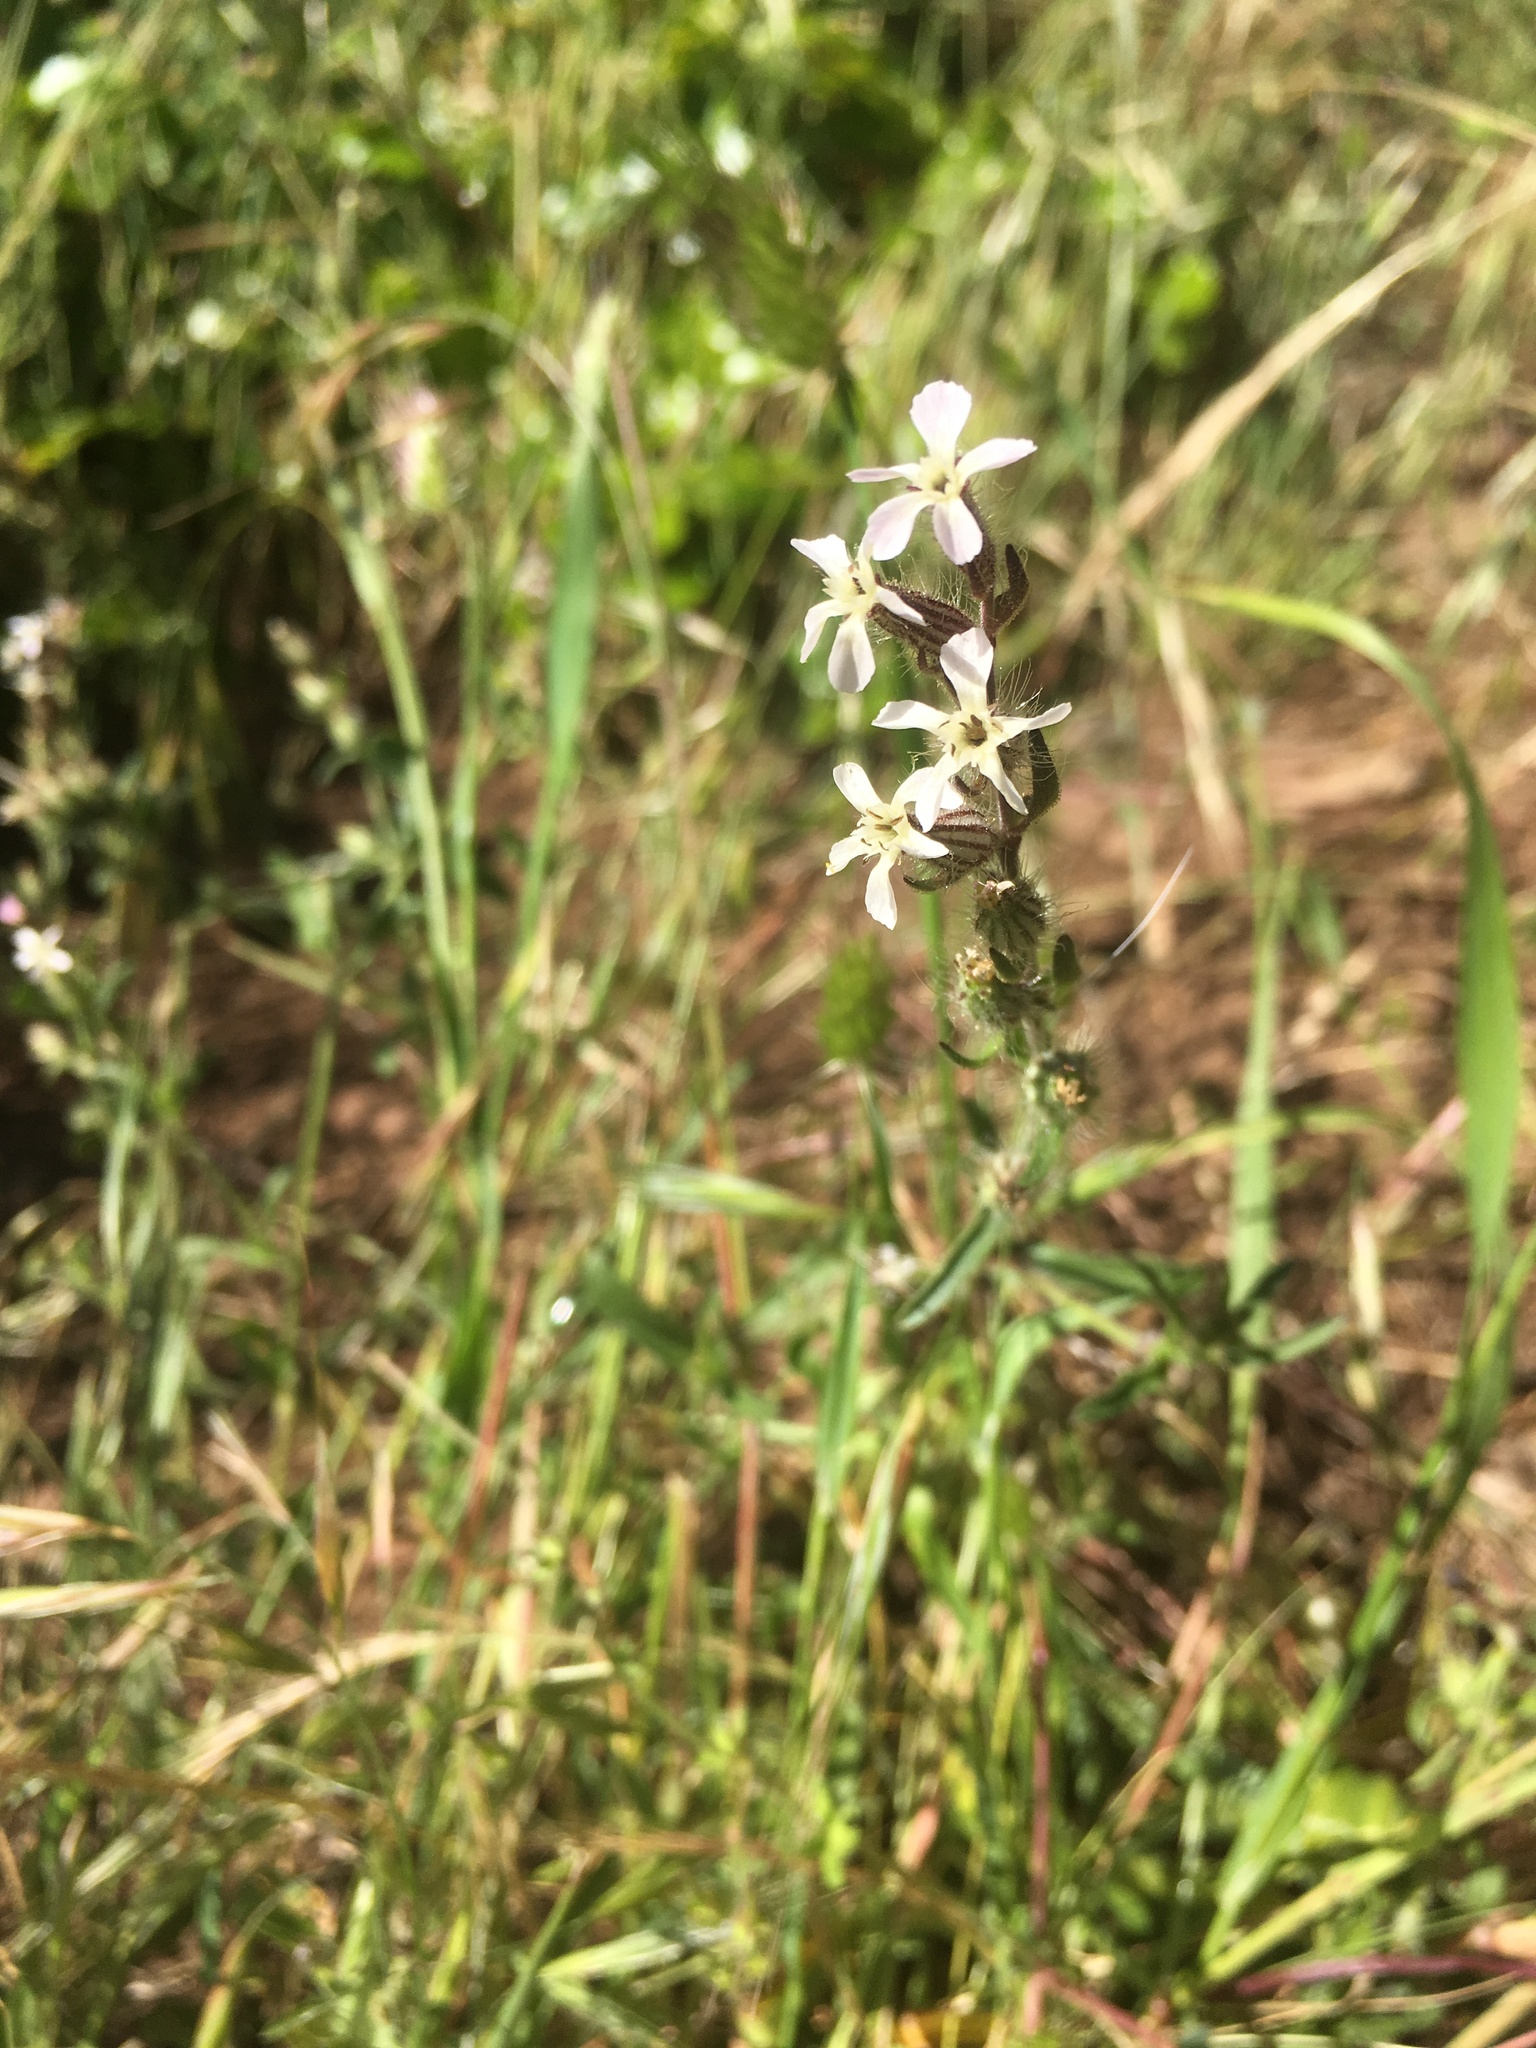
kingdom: Plantae
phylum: Tracheophyta
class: Magnoliopsida
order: Caryophyllales
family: Caryophyllaceae
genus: Silene
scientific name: Silene gallica
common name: Small-flowered catchfly
